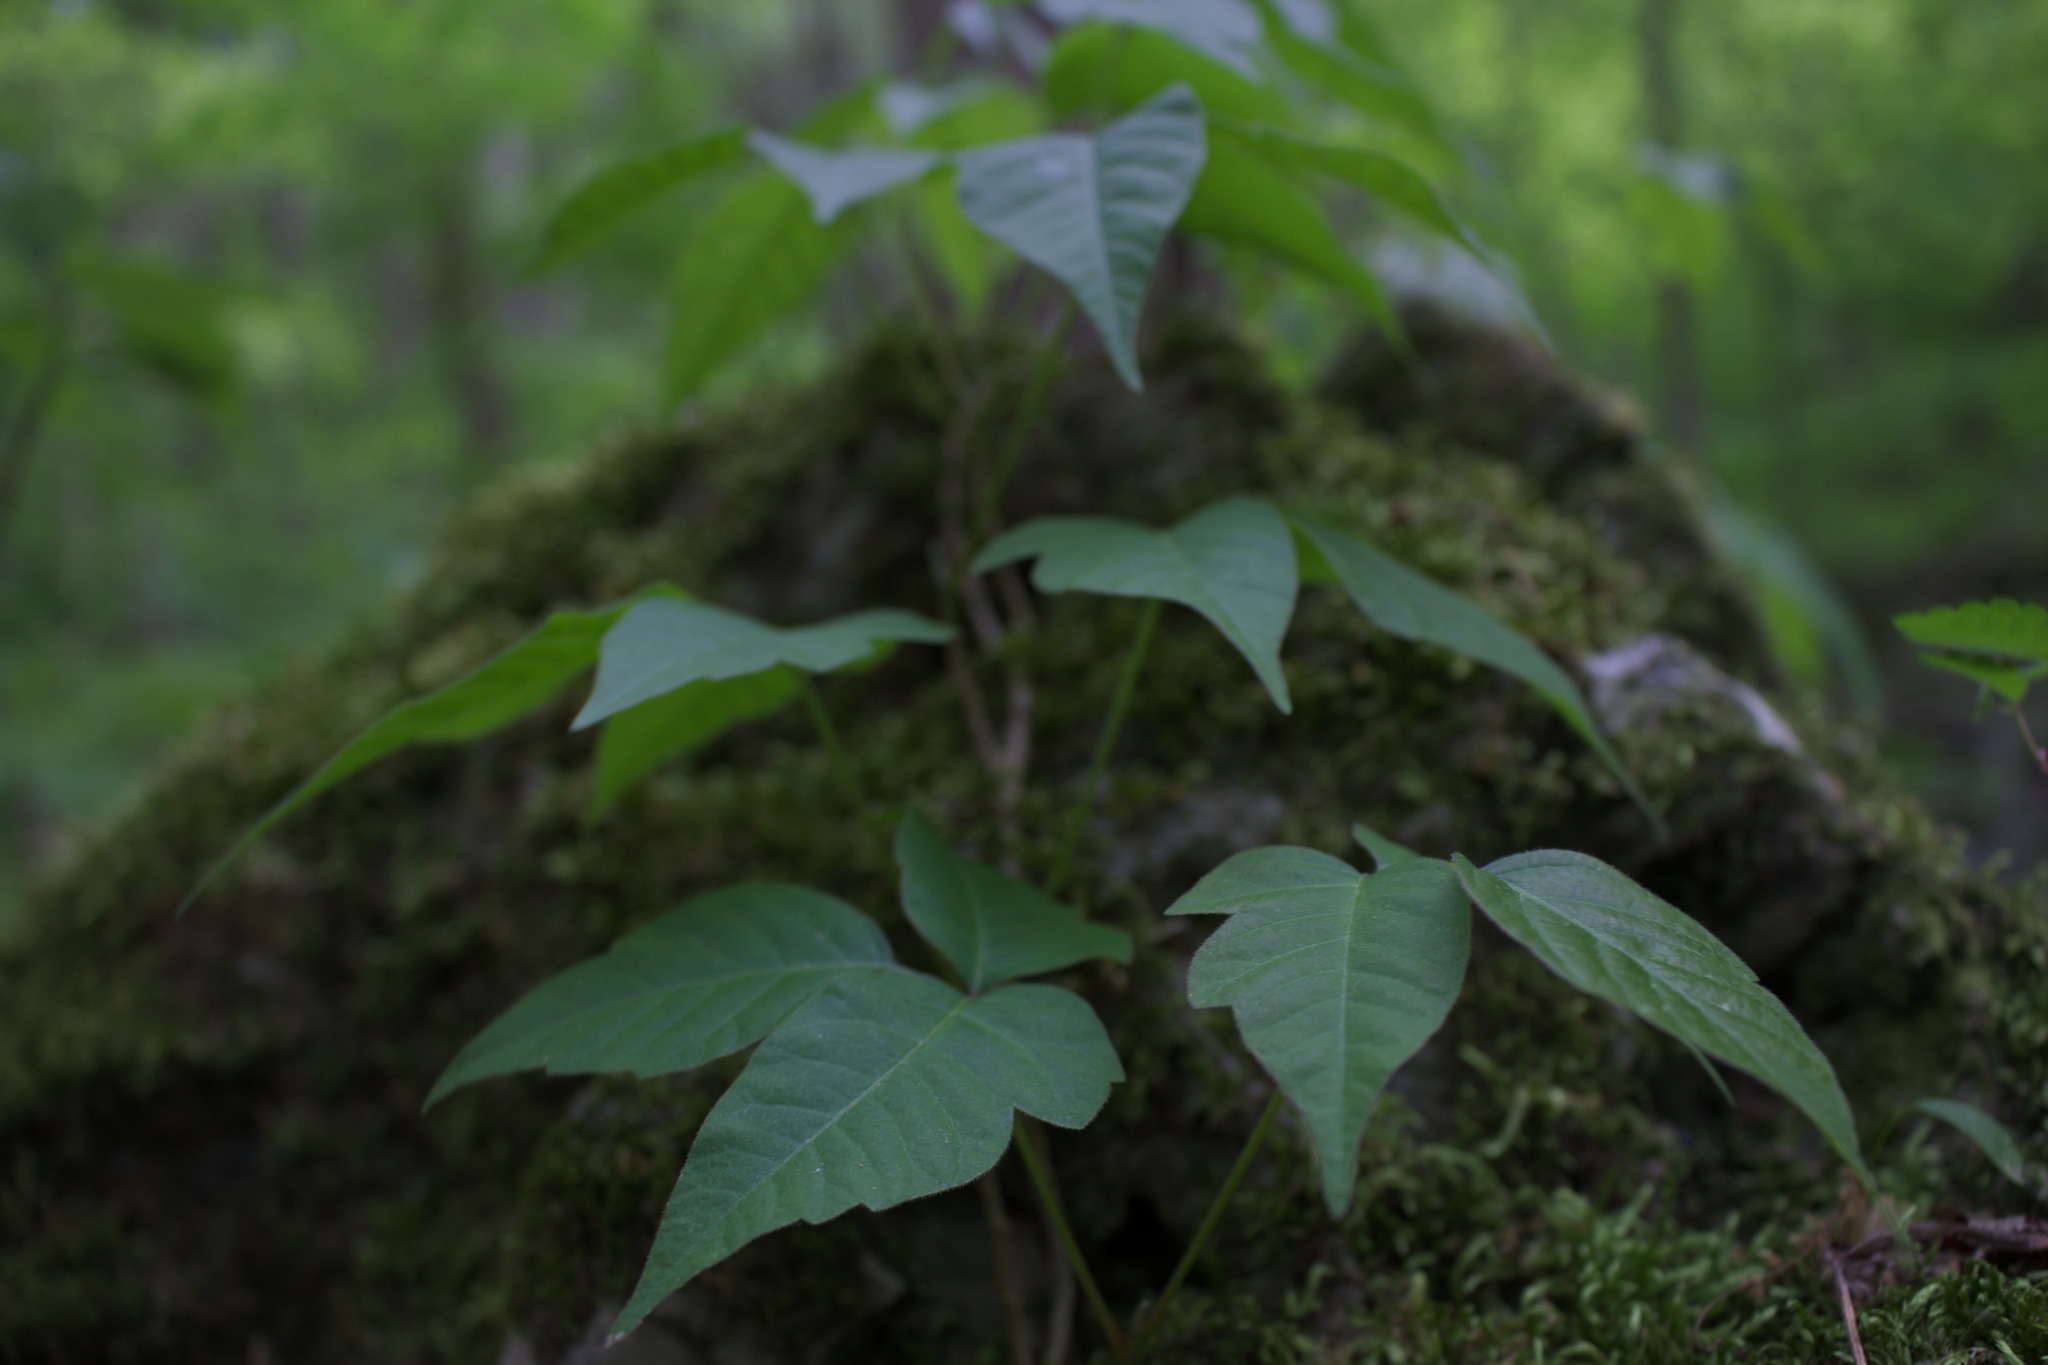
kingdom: Plantae
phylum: Tracheophyta
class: Magnoliopsida
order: Sapindales
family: Anacardiaceae
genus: Toxicodendron
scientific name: Toxicodendron radicans
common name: Poison ivy
